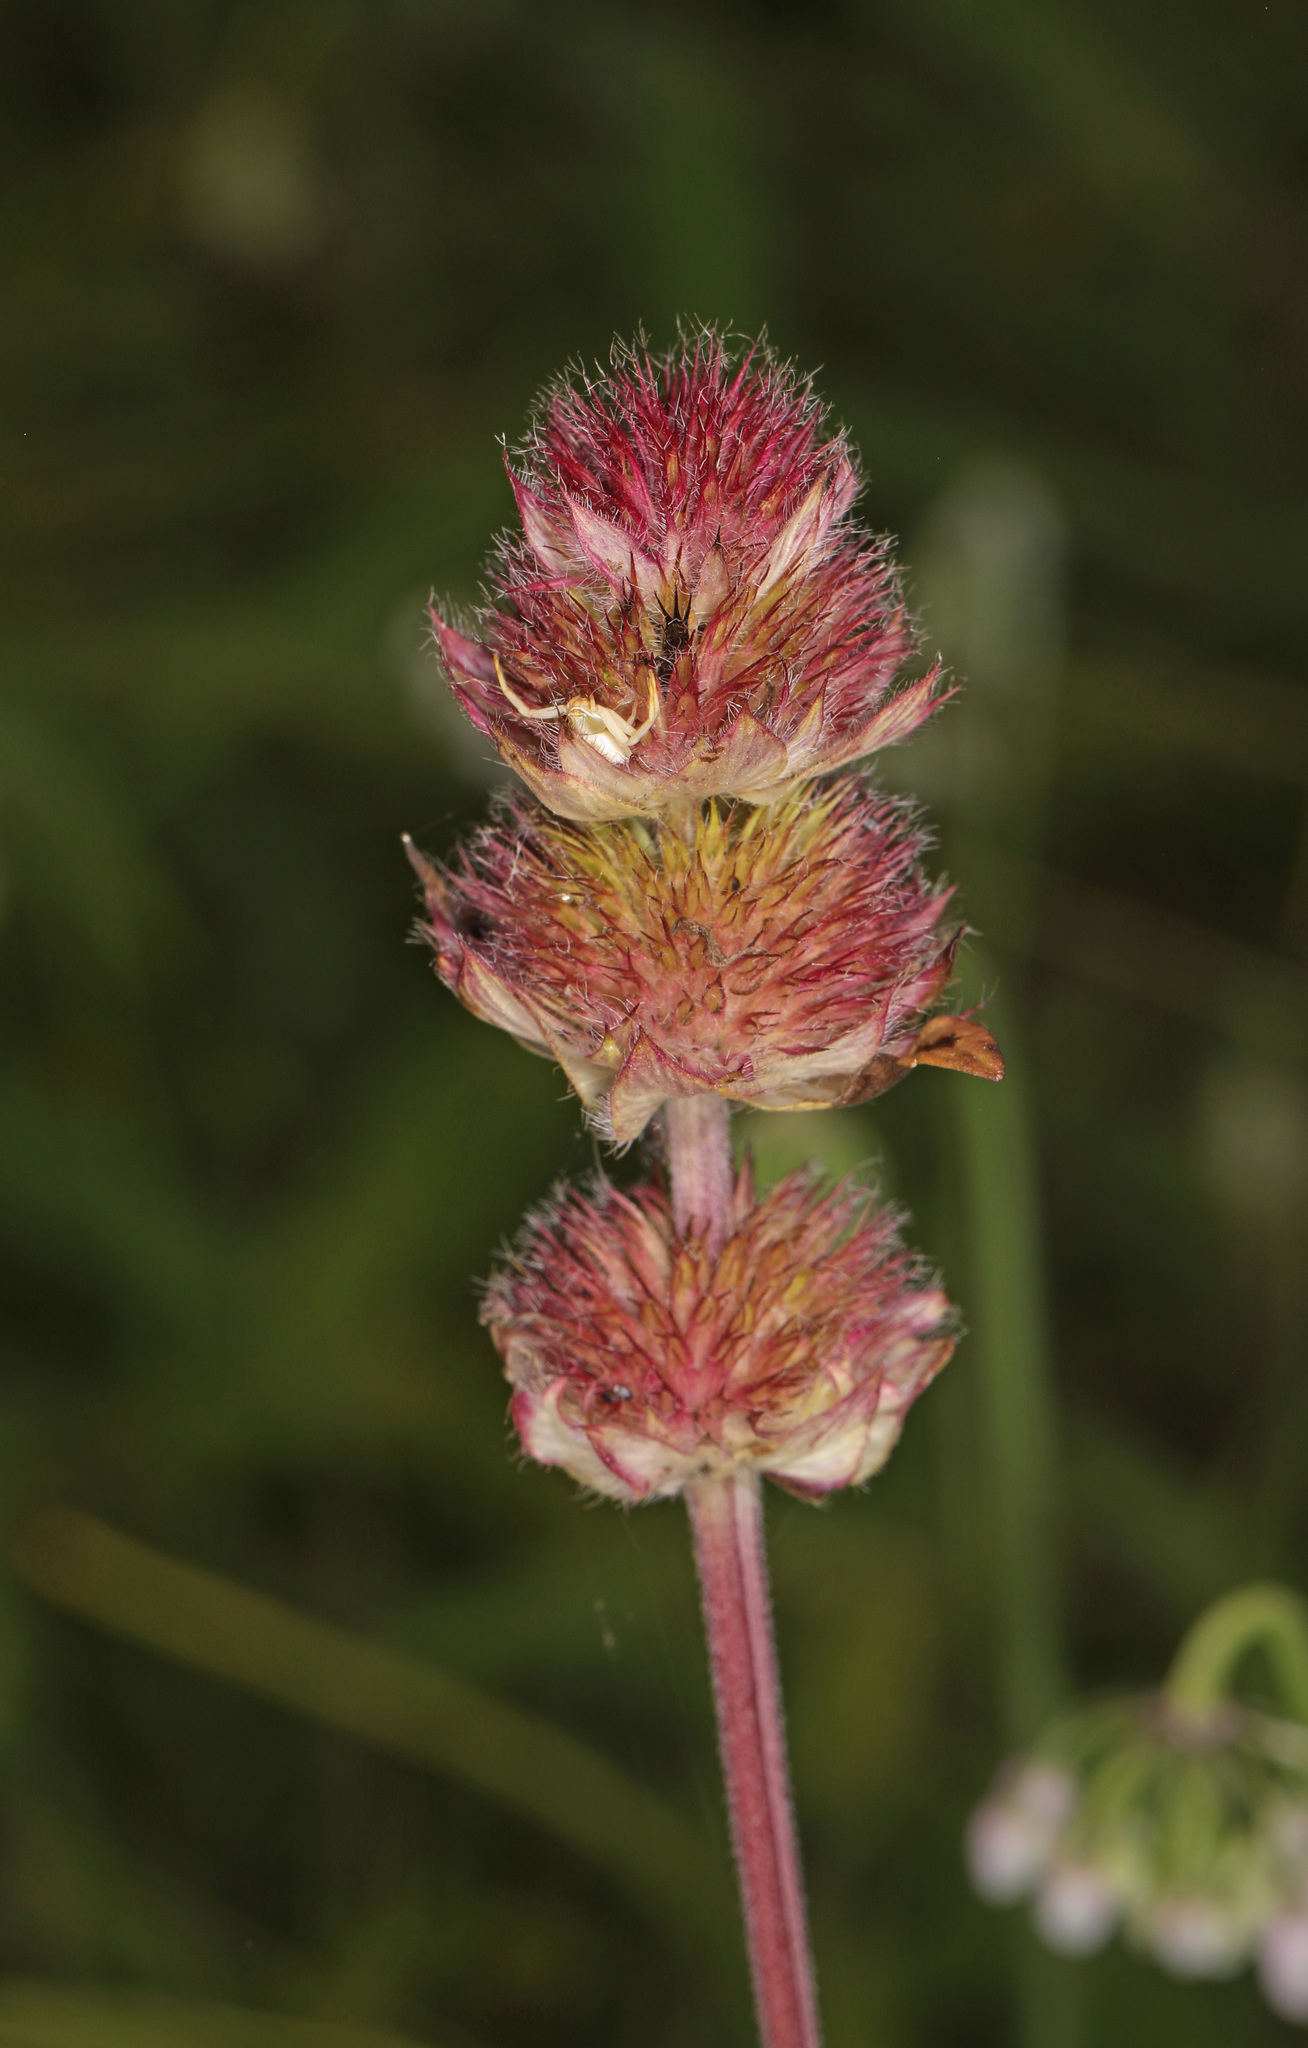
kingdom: Plantae
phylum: Tracheophyta
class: Magnoliopsida
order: Lamiales
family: Lamiaceae
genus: Blephilia
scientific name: Blephilia ciliata
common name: Downy blephilia
